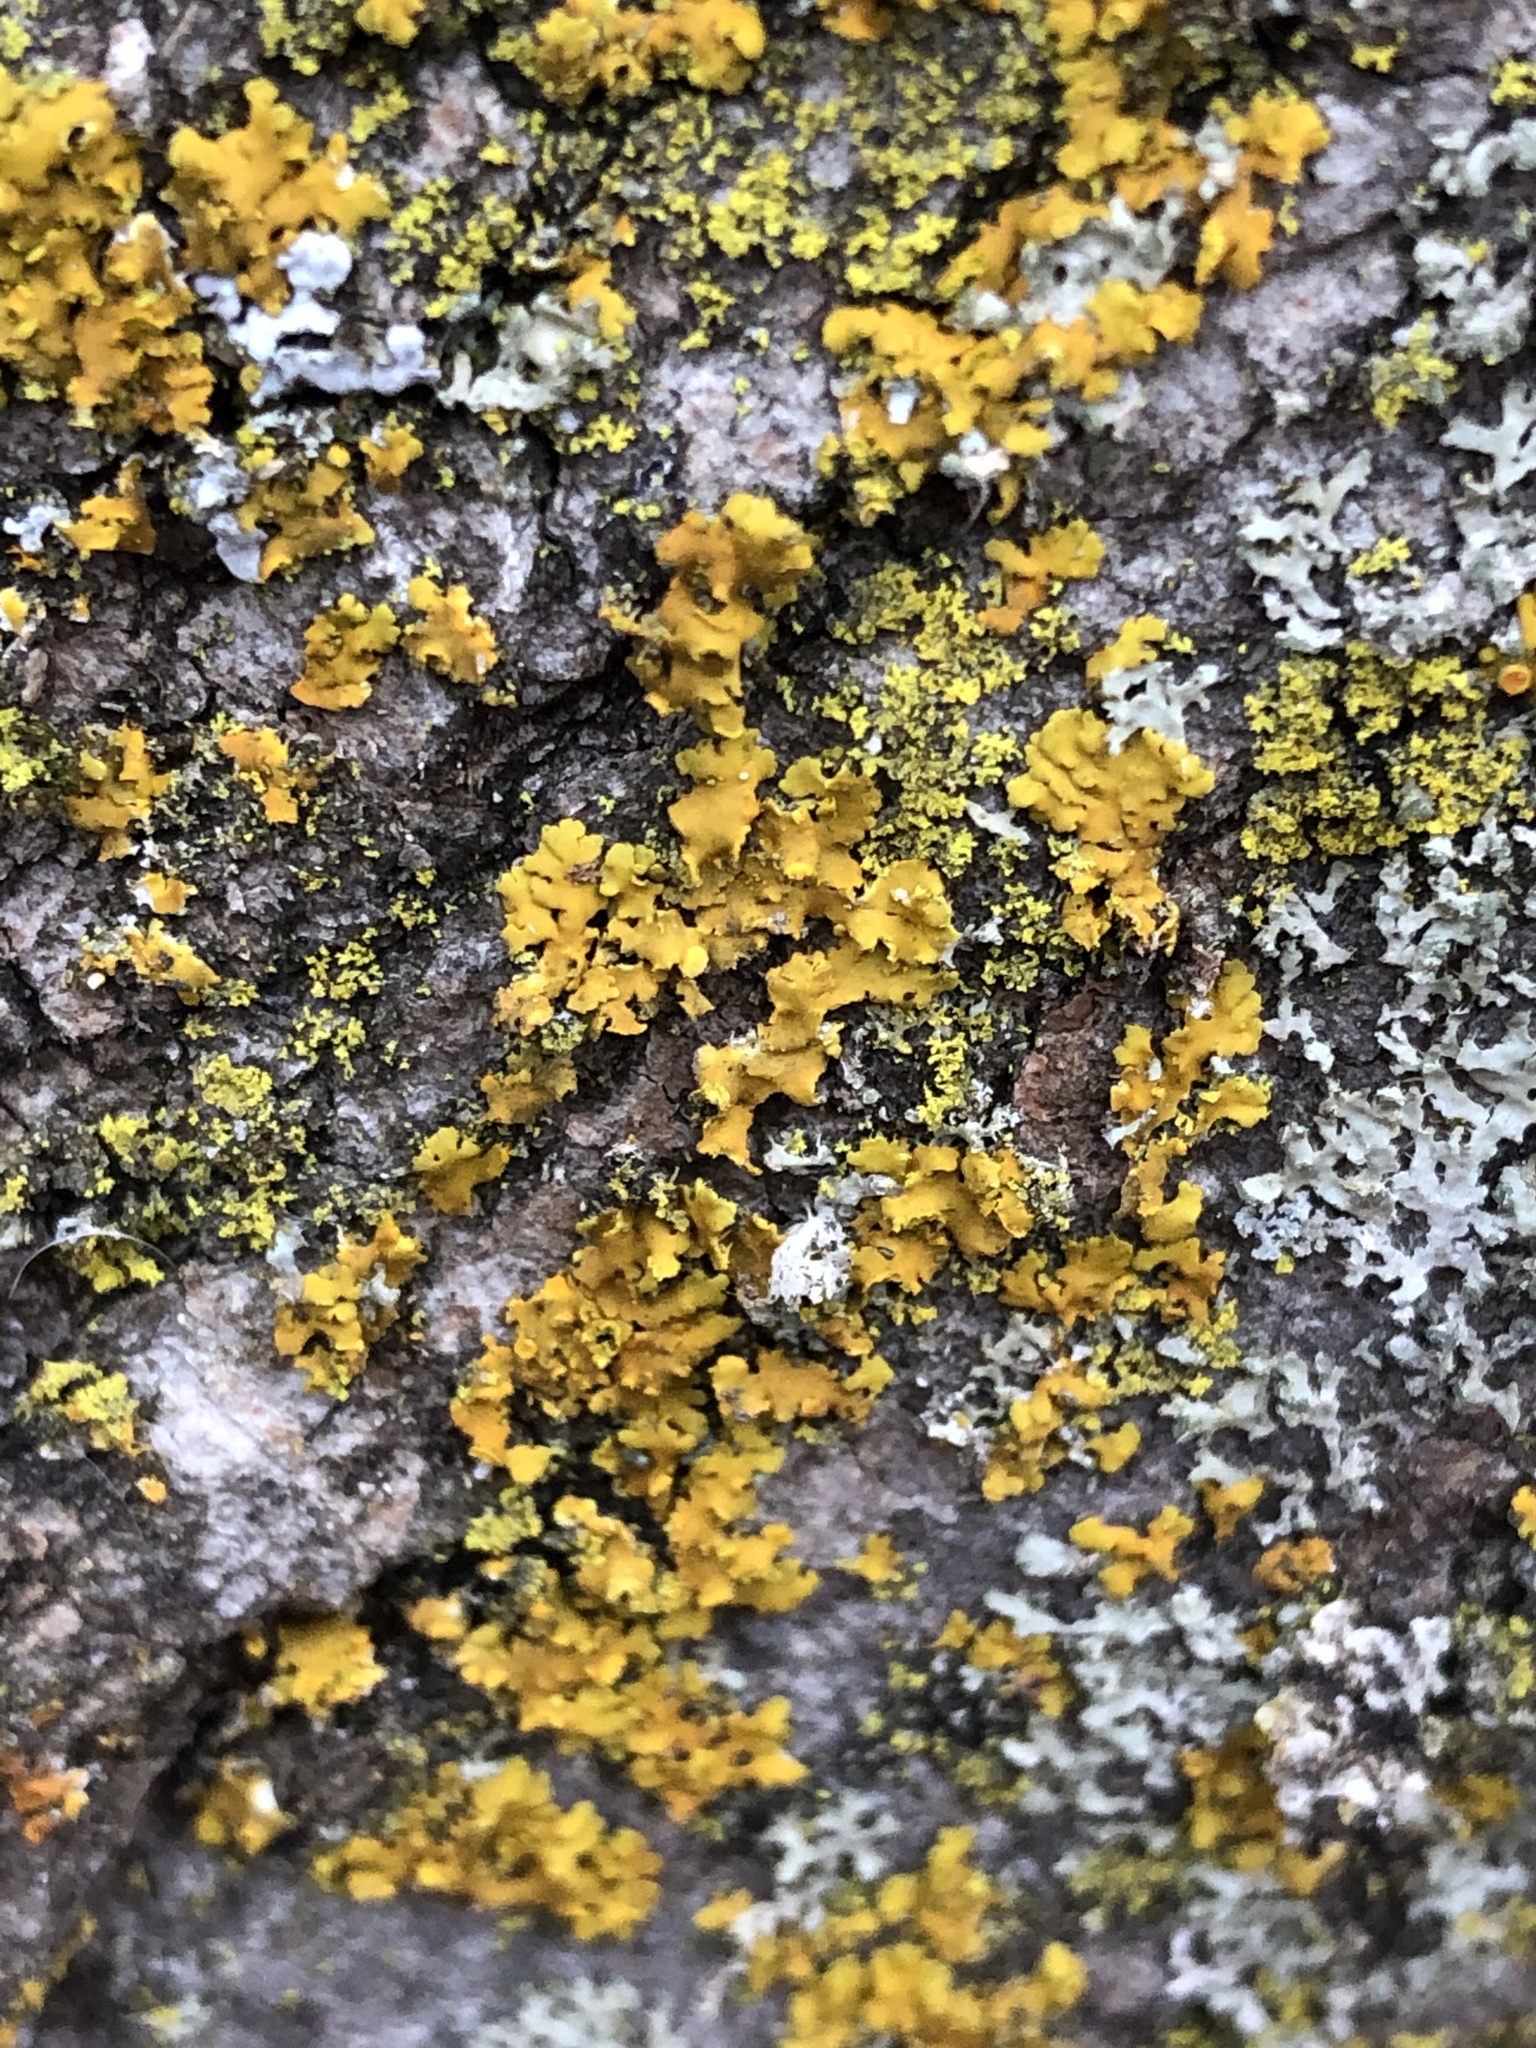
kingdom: Fungi
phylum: Ascomycota
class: Lecanoromycetes
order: Teloschistales
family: Teloschistaceae
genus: Oxneria
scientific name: Oxneria fallax
